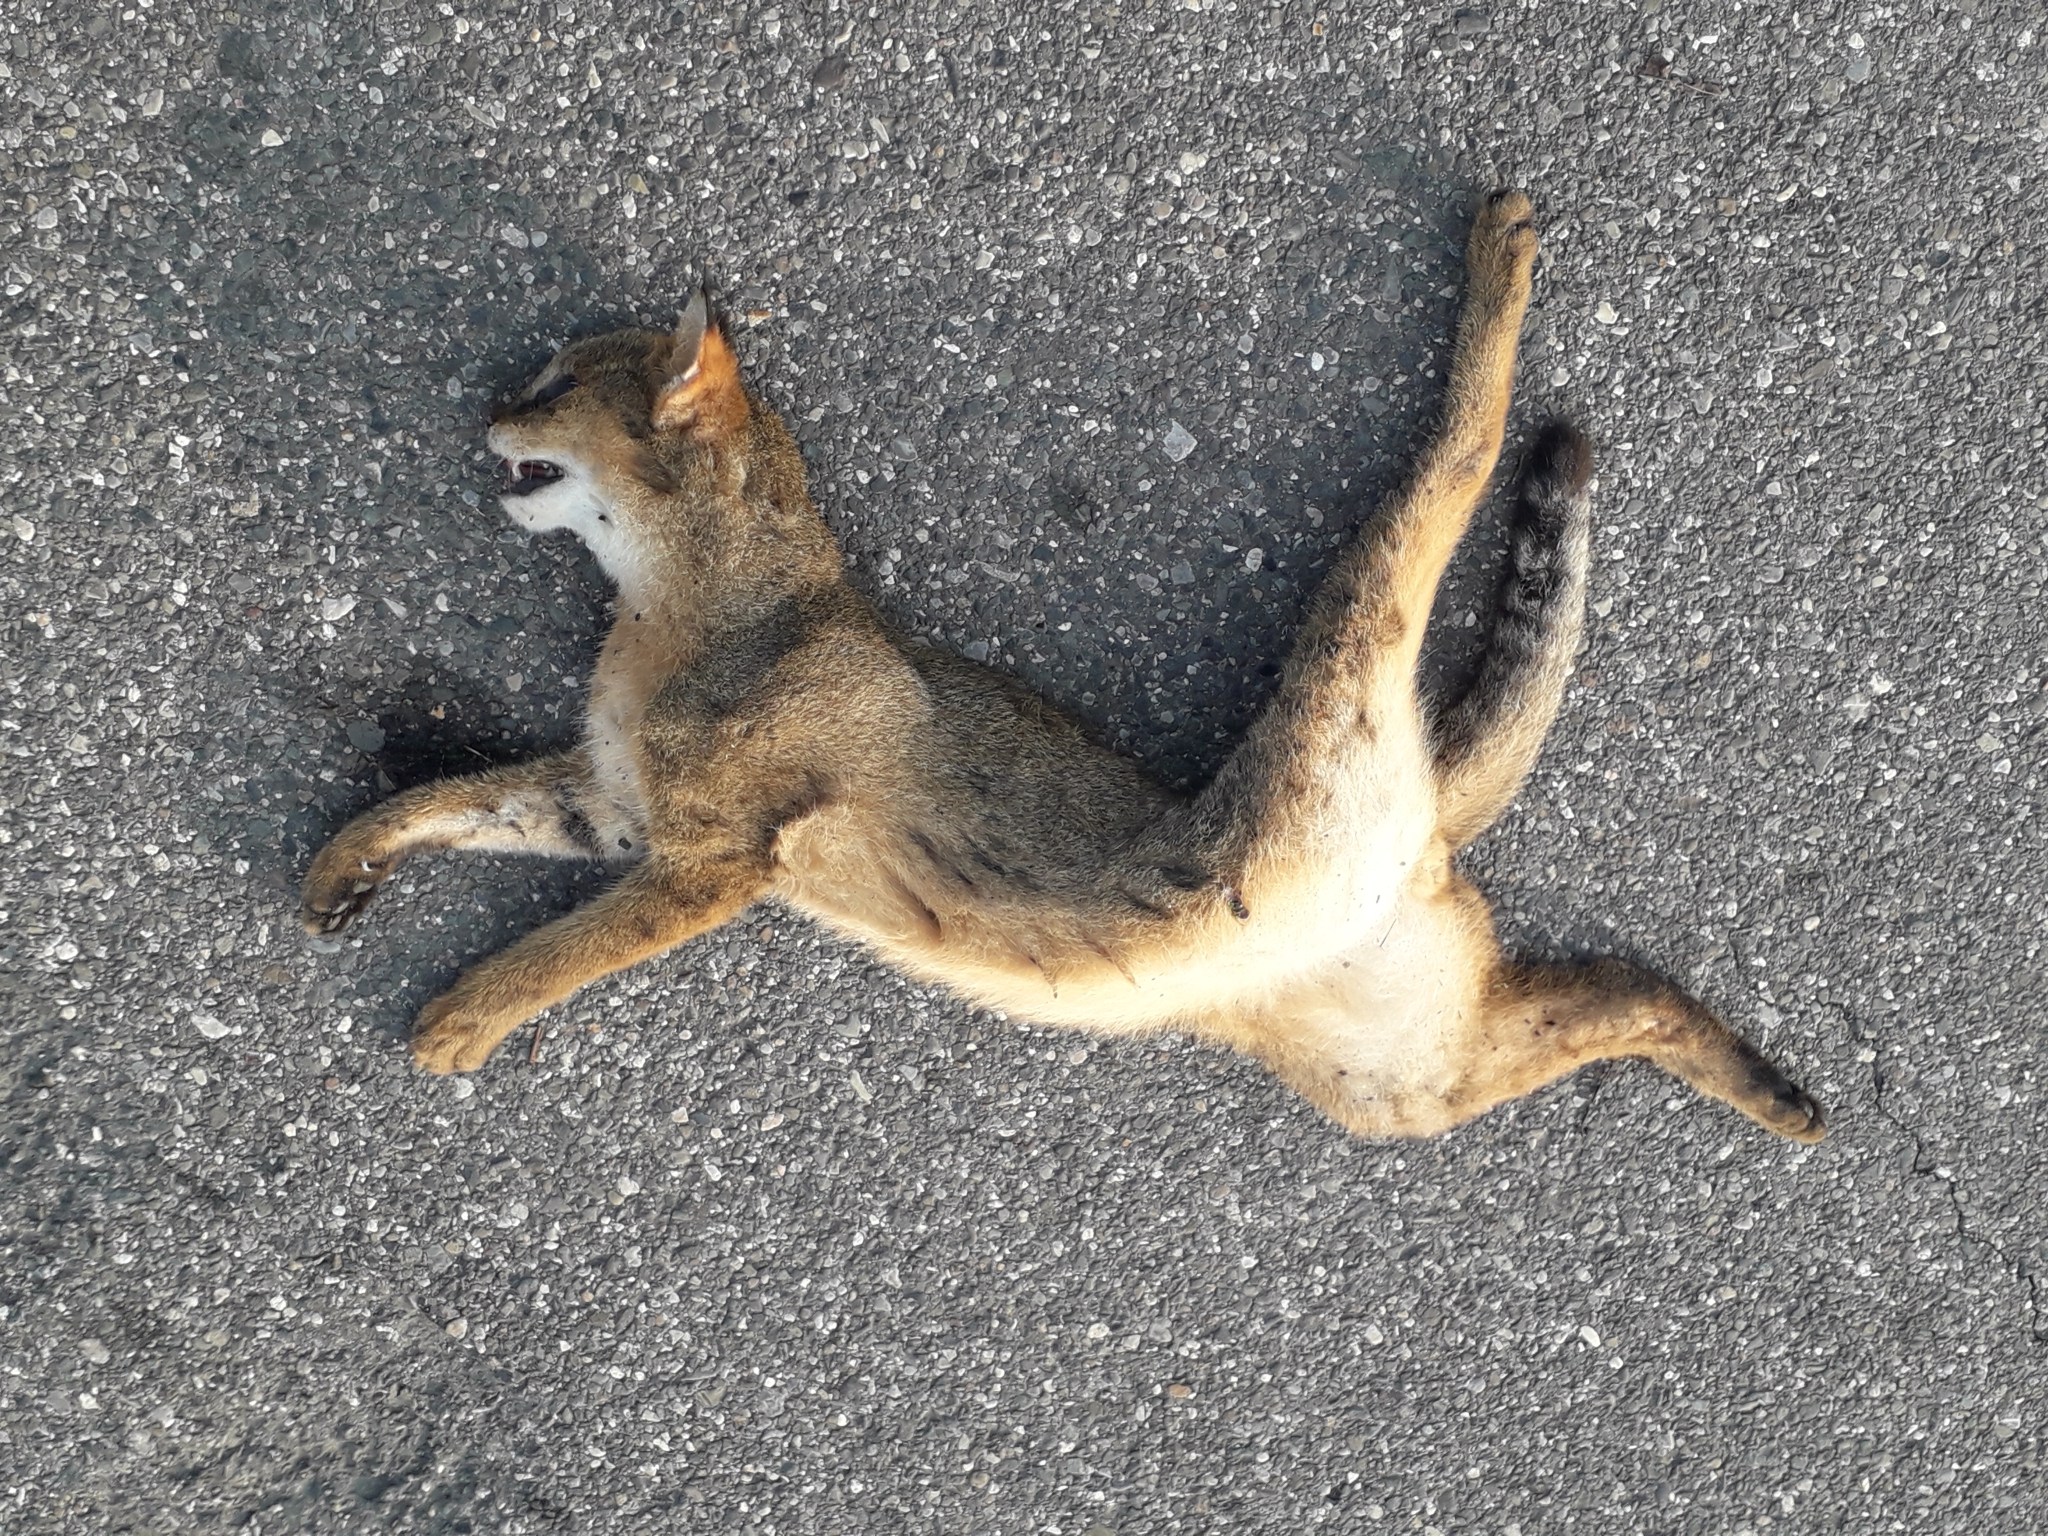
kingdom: Animalia
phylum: Chordata
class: Mammalia
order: Carnivora
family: Felidae
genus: Felis
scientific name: Felis chaus
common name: Jungle cat
